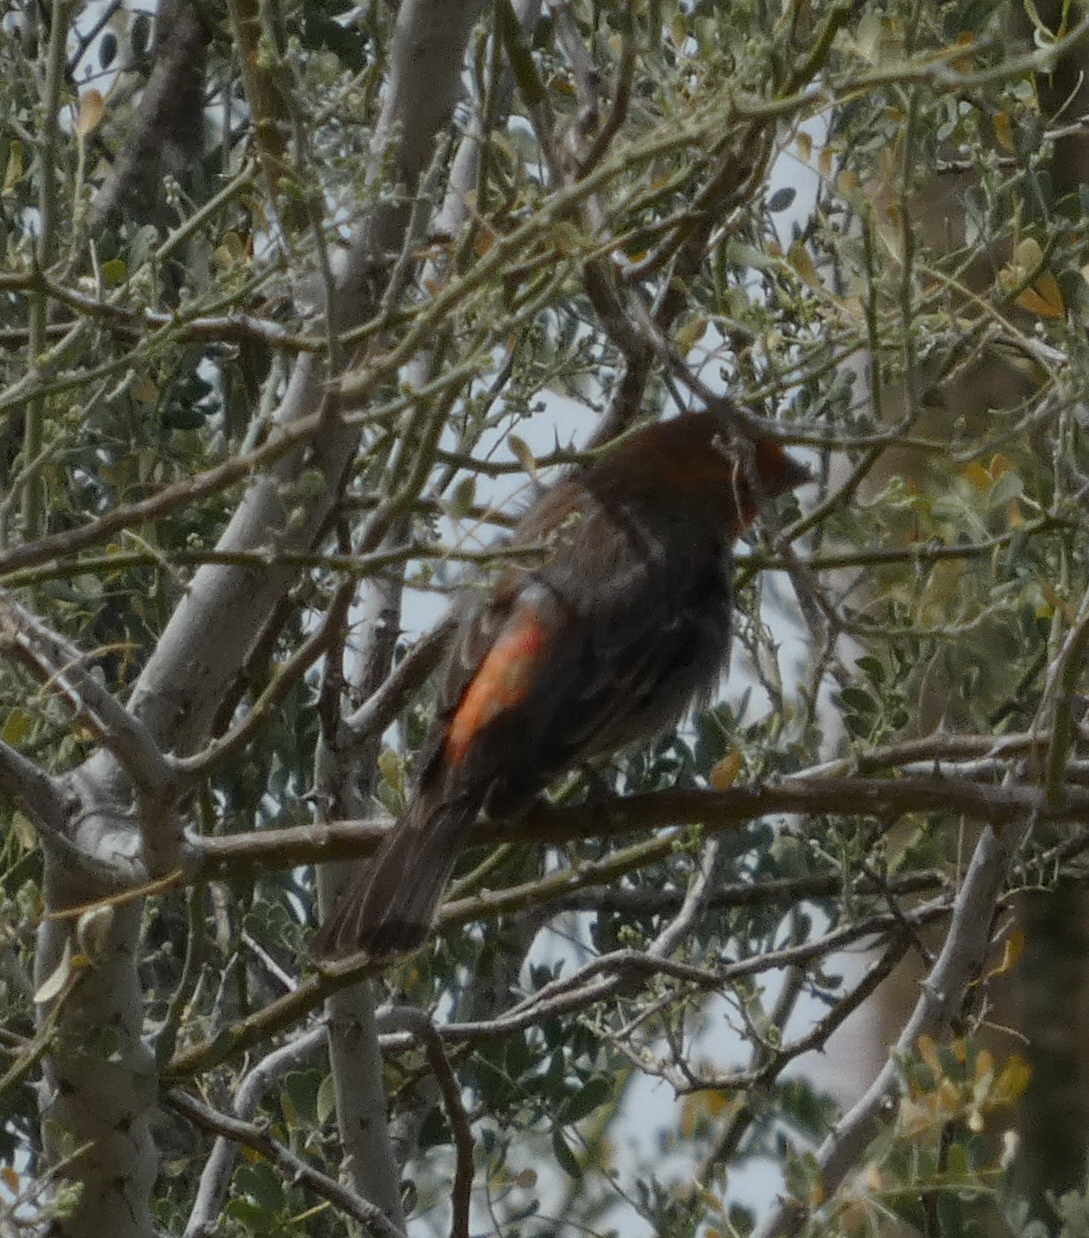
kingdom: Animalia
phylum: Chordata
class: Aves
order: Passeriformes
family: Fringillidae
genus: Haemorhous
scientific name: Haemorhous mexicanus
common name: House finch
